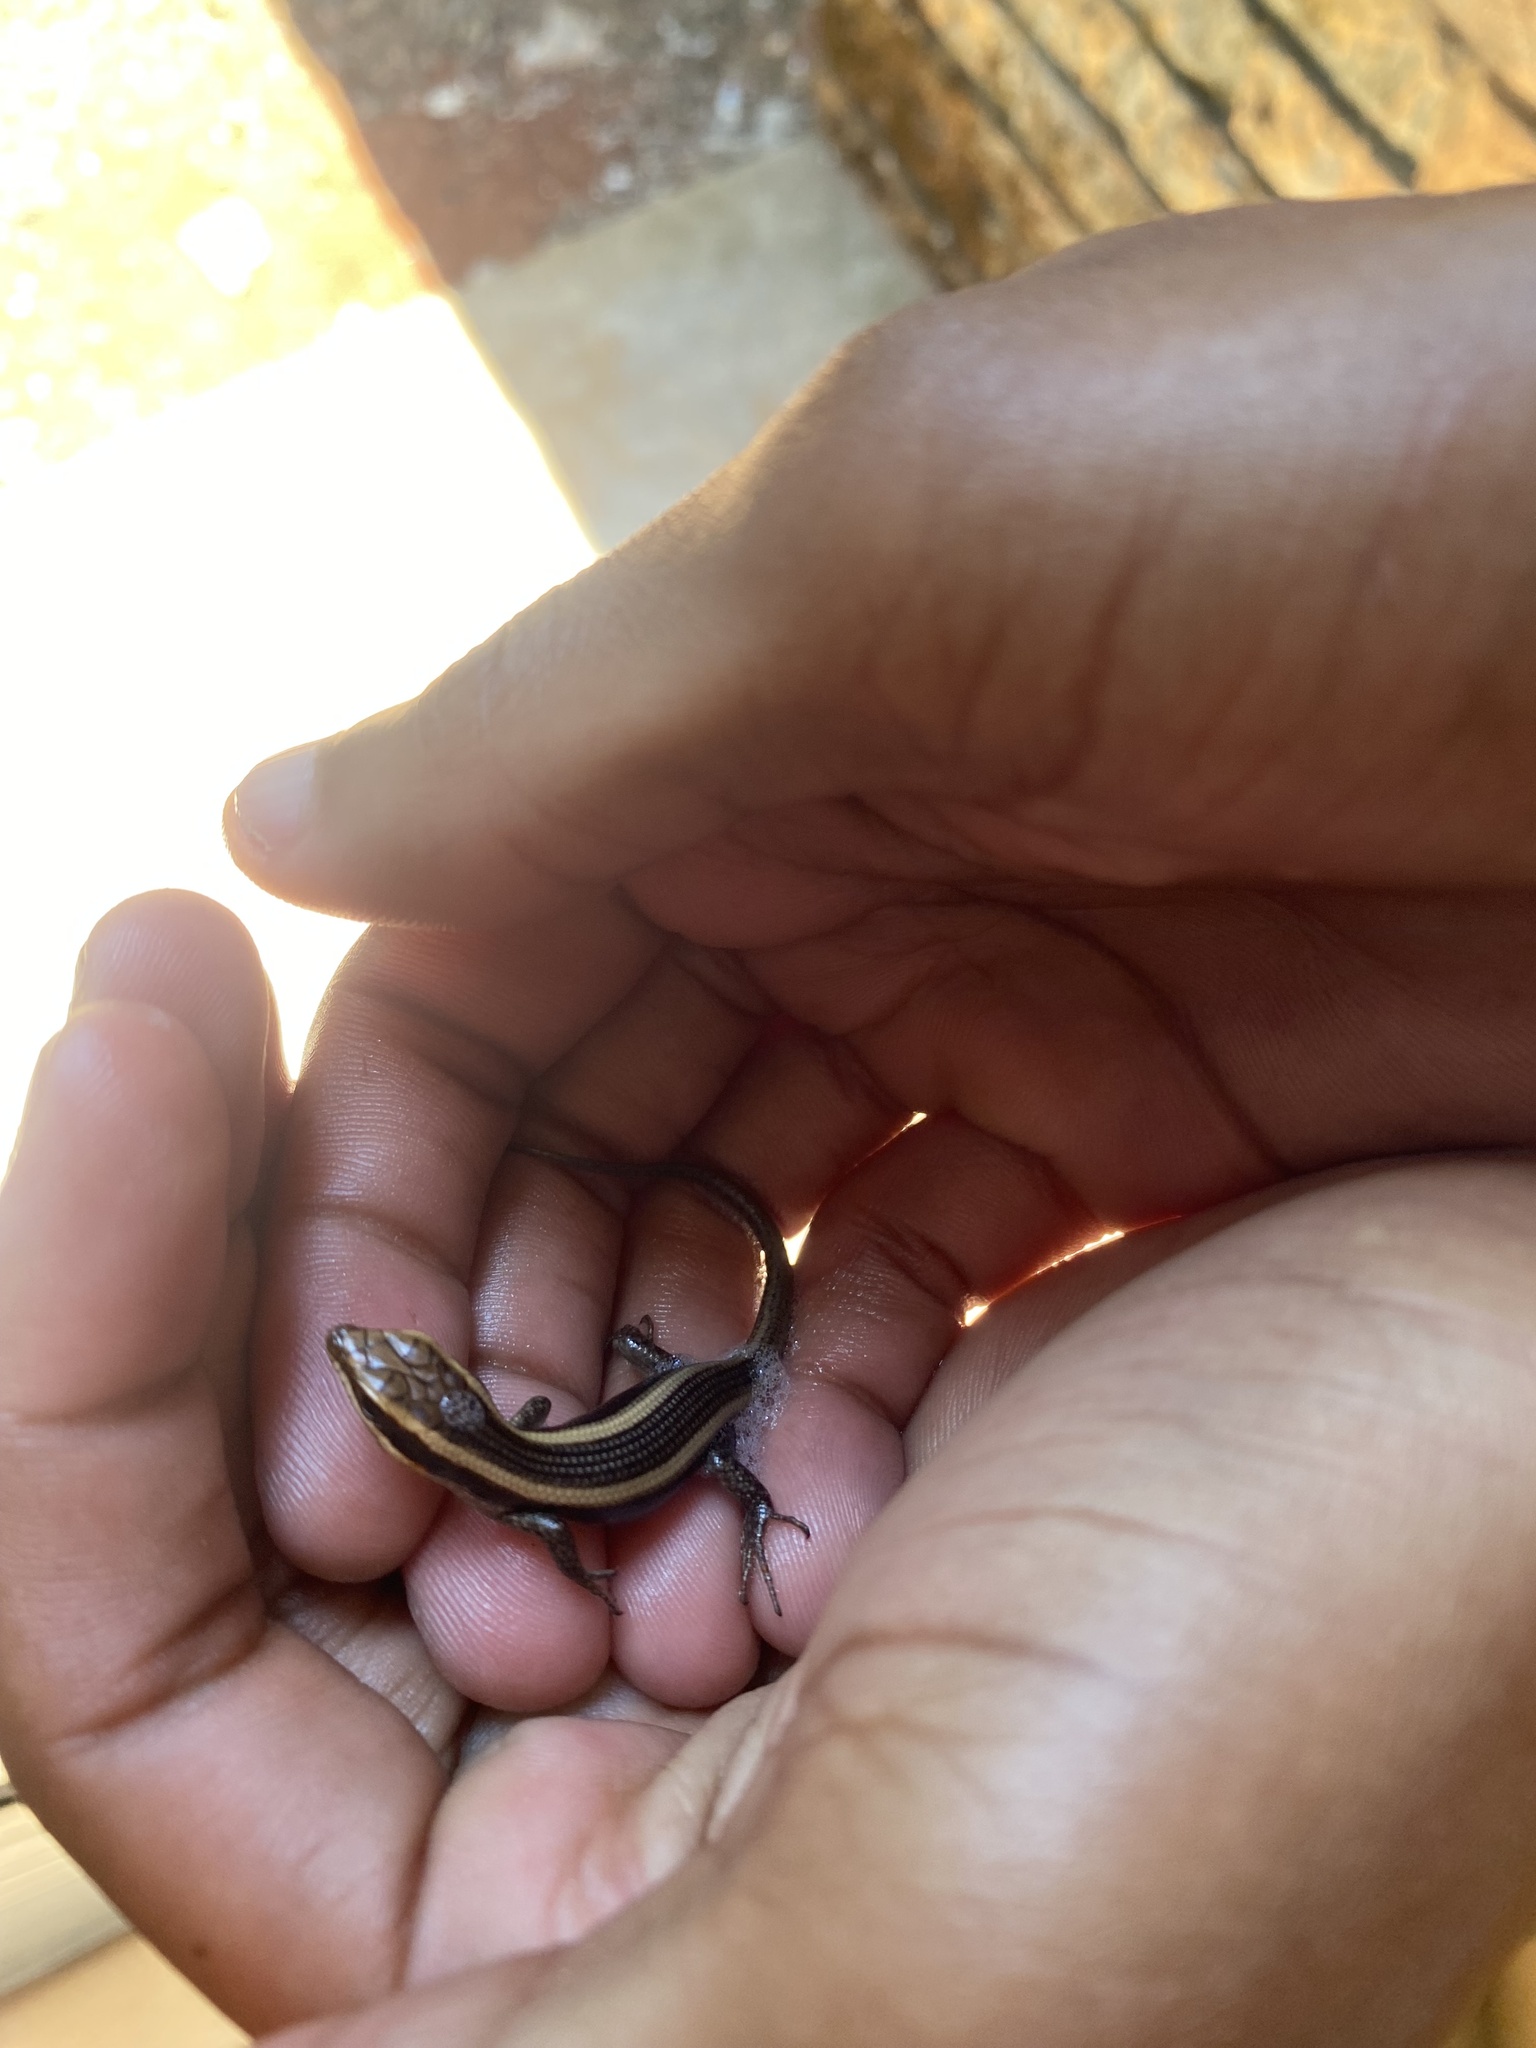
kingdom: Animalia
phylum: Chordata
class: Squamata
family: Scincidae
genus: Trachylepis
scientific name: Trachylepis striata
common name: African striped mabuya
